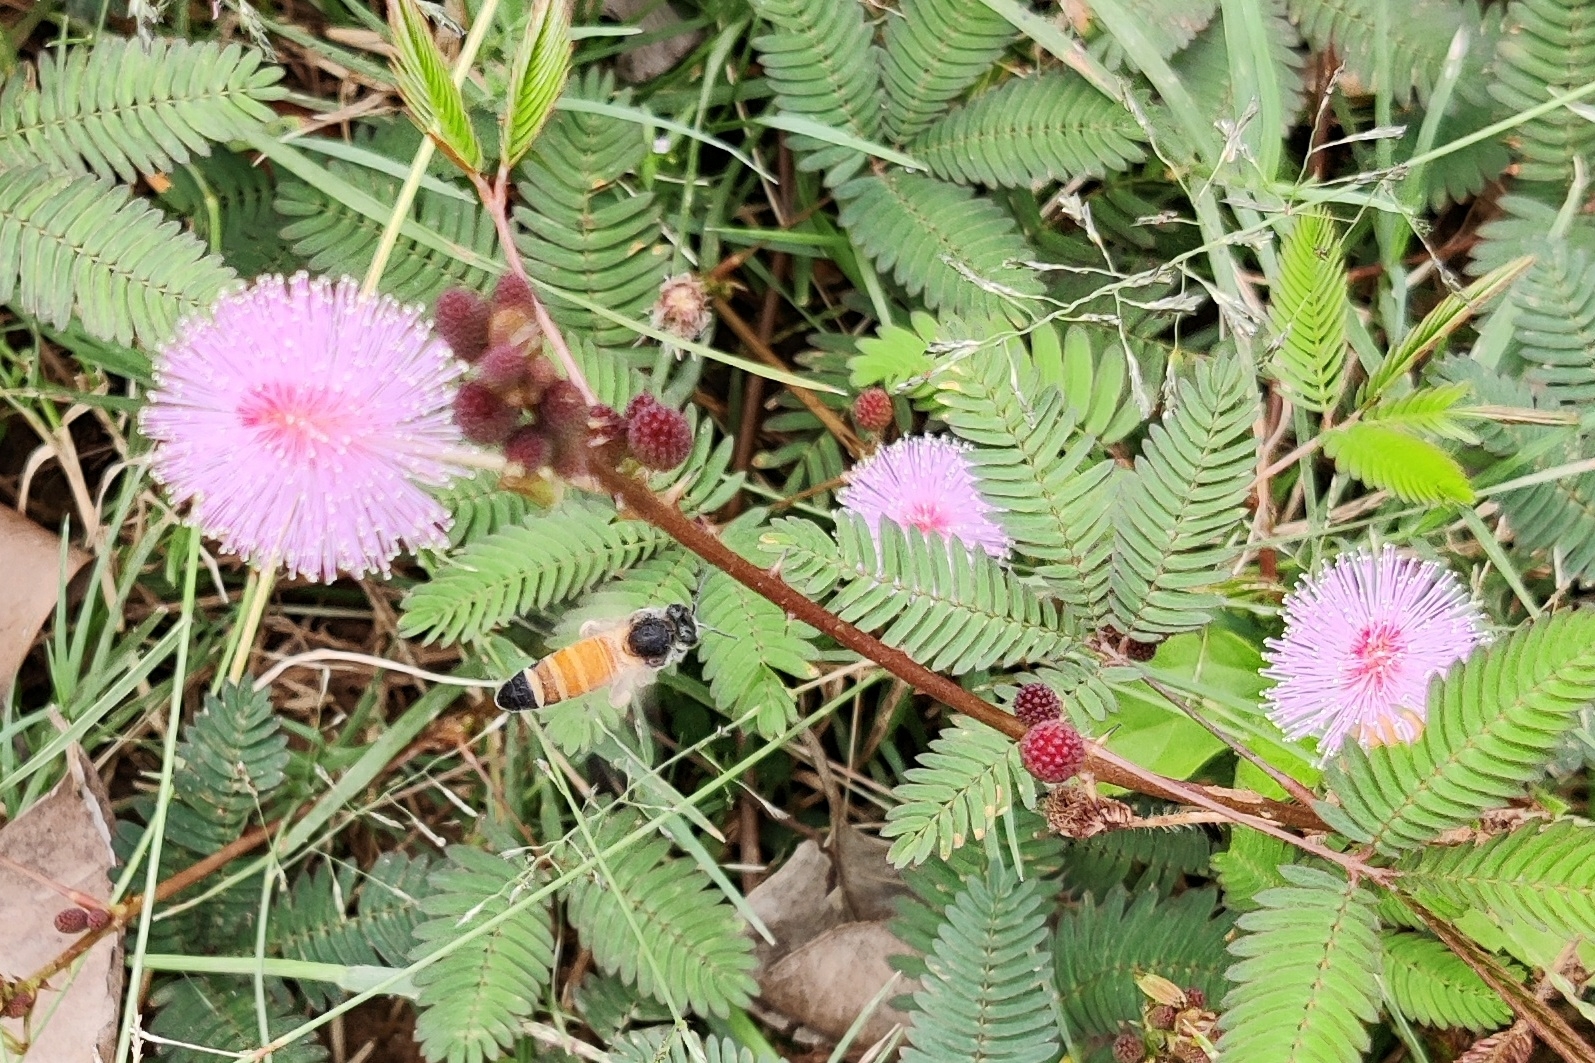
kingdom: Animalia
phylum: Arthropoda
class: Insecta
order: Hymenoptera
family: Apidae
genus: Apis
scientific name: Apis dorsata
